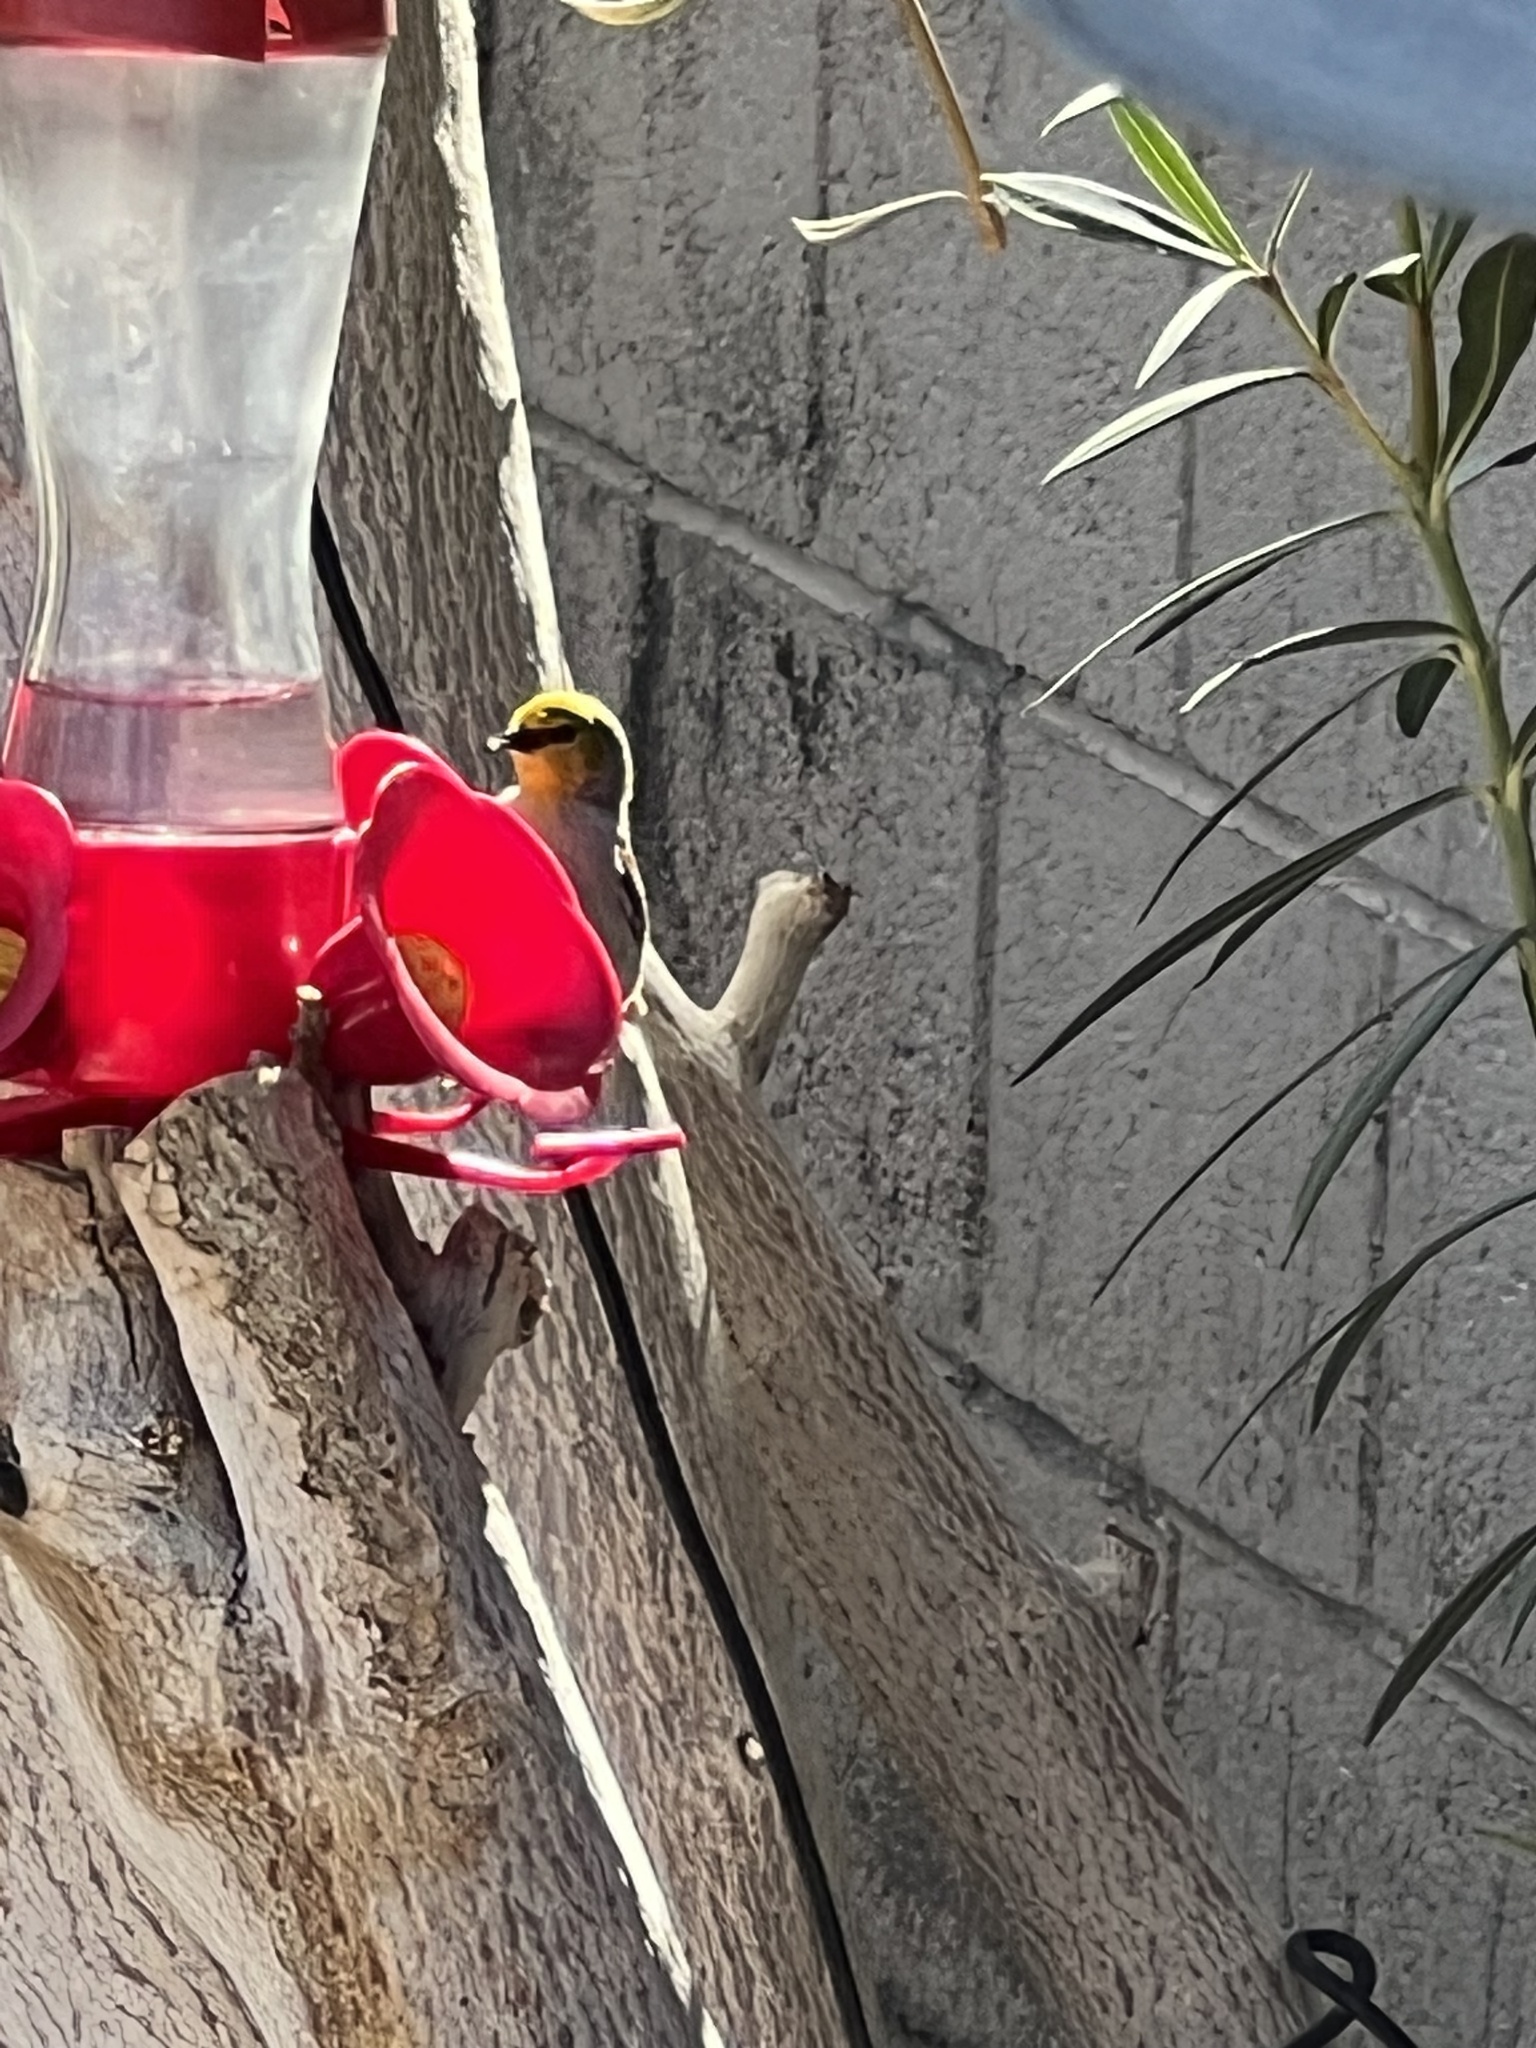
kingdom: Animalia
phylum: Chordata
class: Aves
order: Passeriformes
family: Remizidae
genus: Auriparus
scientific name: Auriparus flaviceps
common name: Verdin
